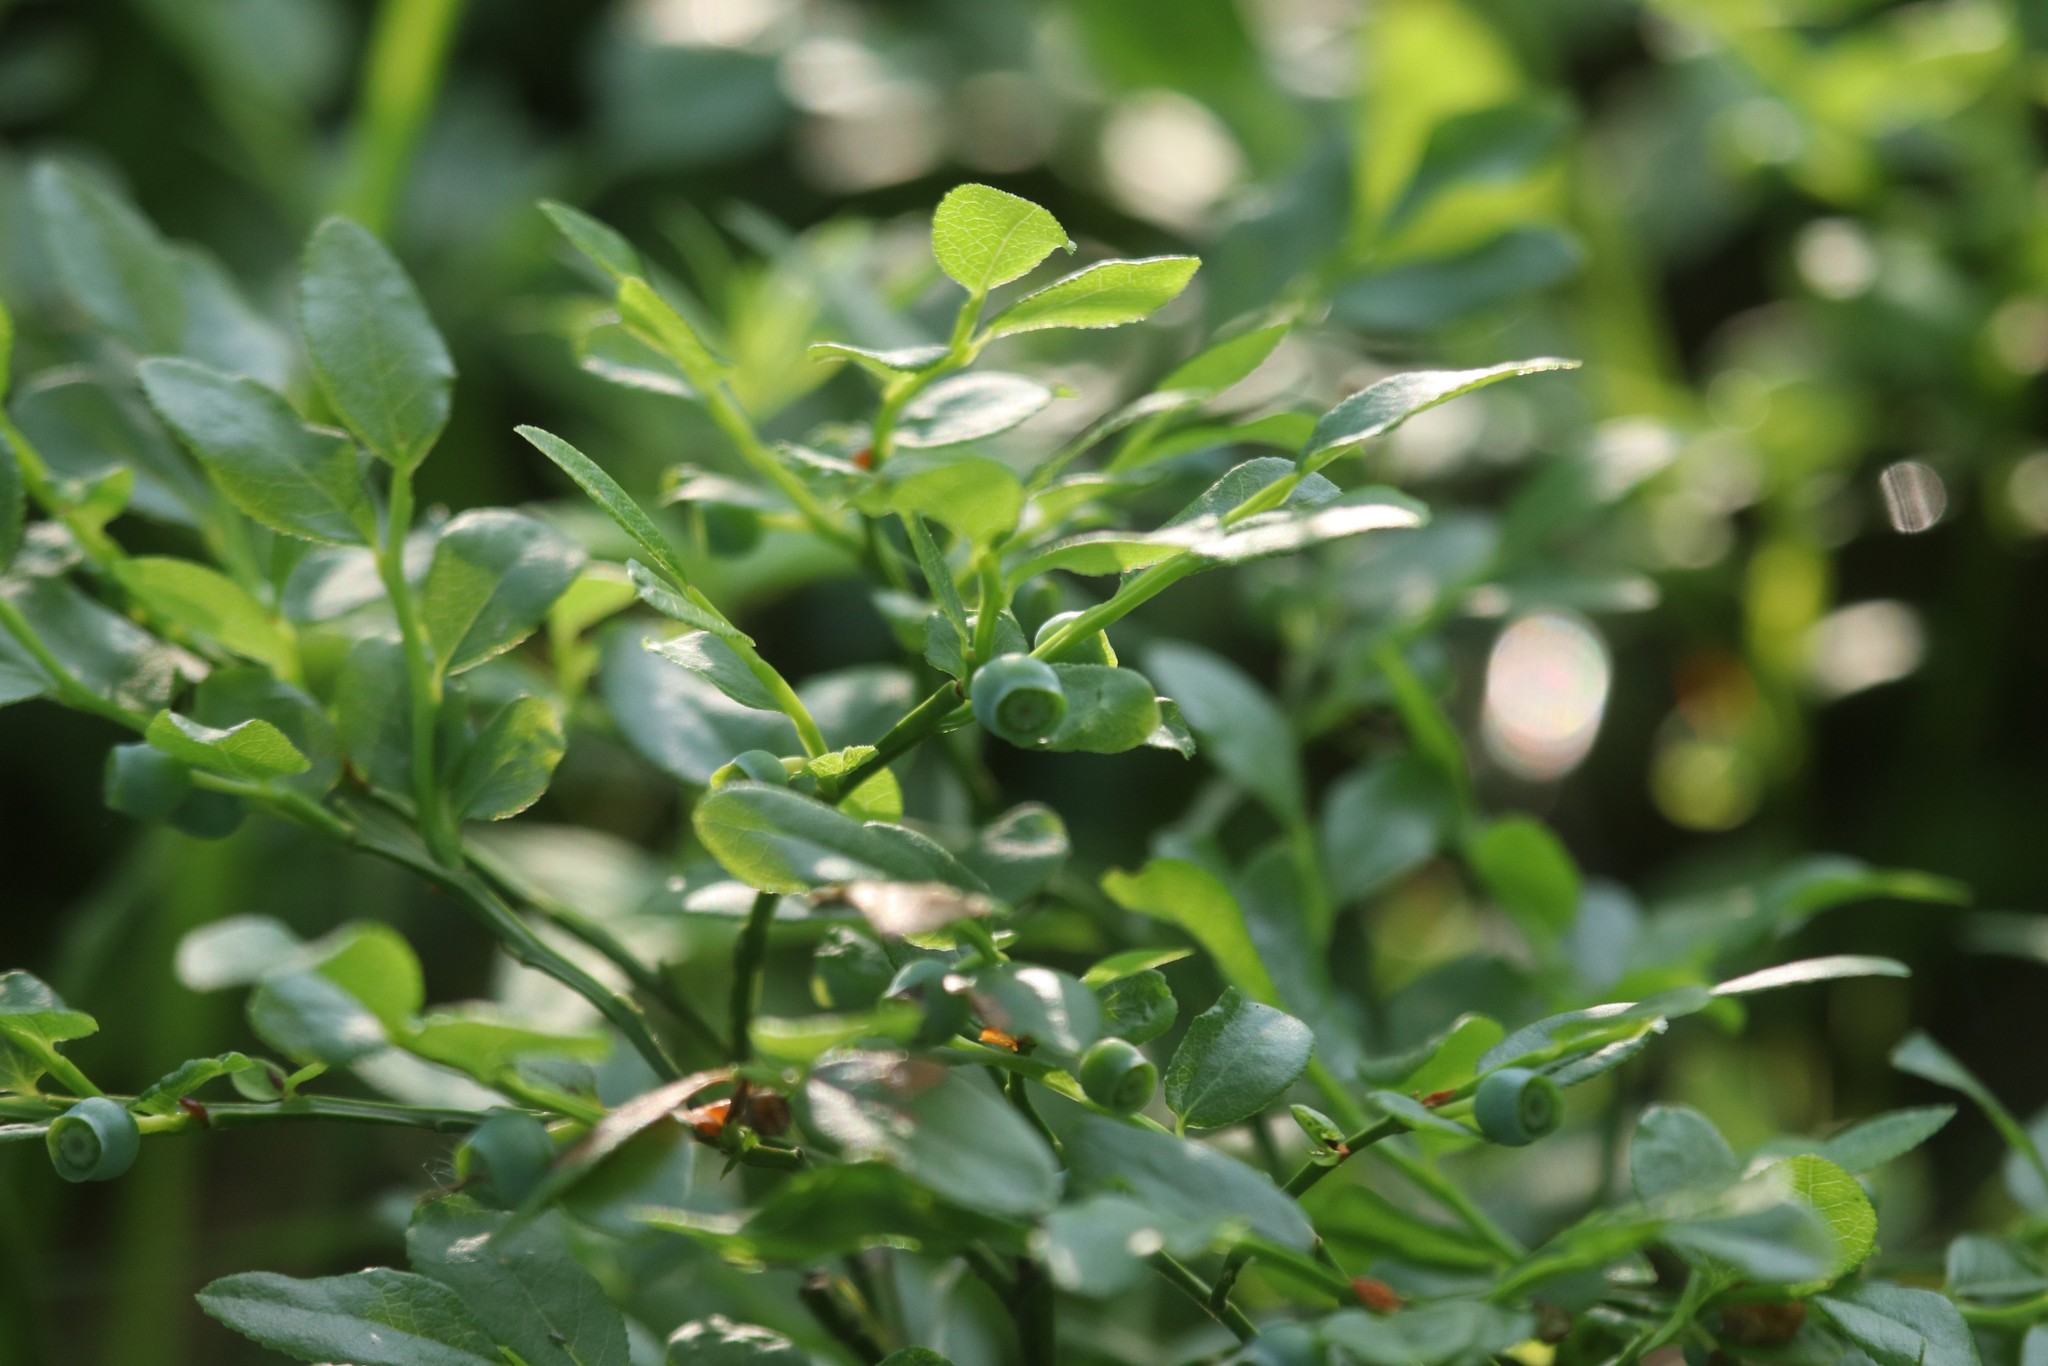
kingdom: Plantae
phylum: Tracheophyta
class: Magnoliopsida
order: Ericales
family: Ericaceae
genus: Vaccinium
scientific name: Vaccinium myrtillus
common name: Bilberry
